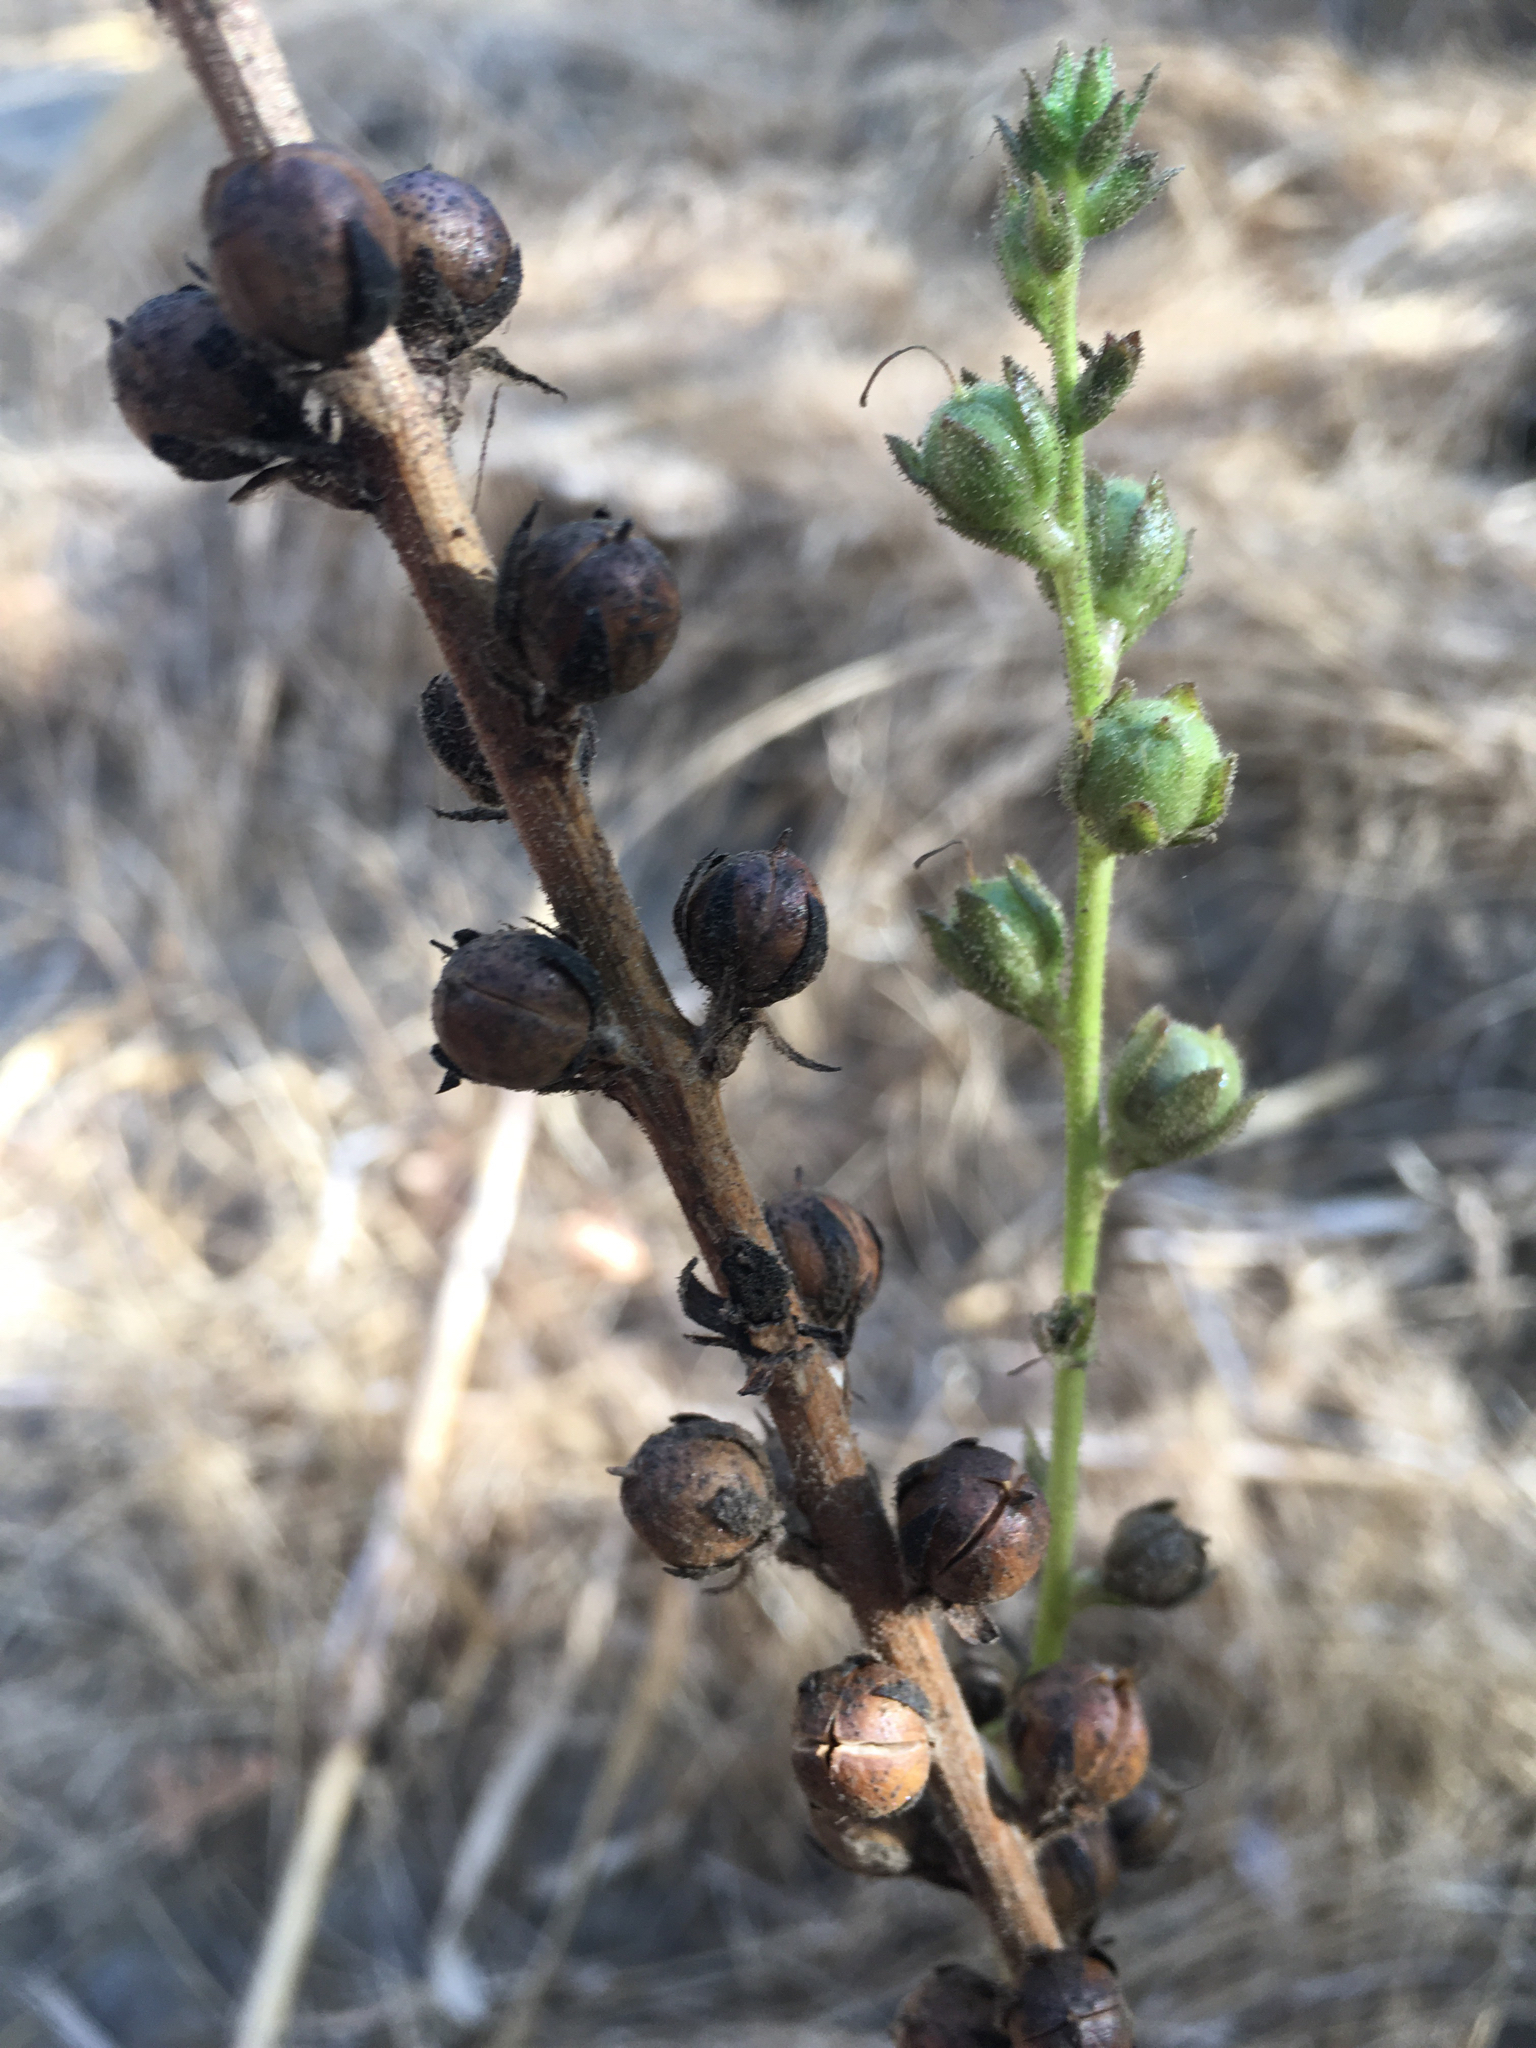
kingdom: Plantae
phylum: Tracheophyta
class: Magnoliopsida
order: Lamiales
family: Scrophulariaceae
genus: Verbascum
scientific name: Verbascum virgatum
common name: Twiggy mullein
